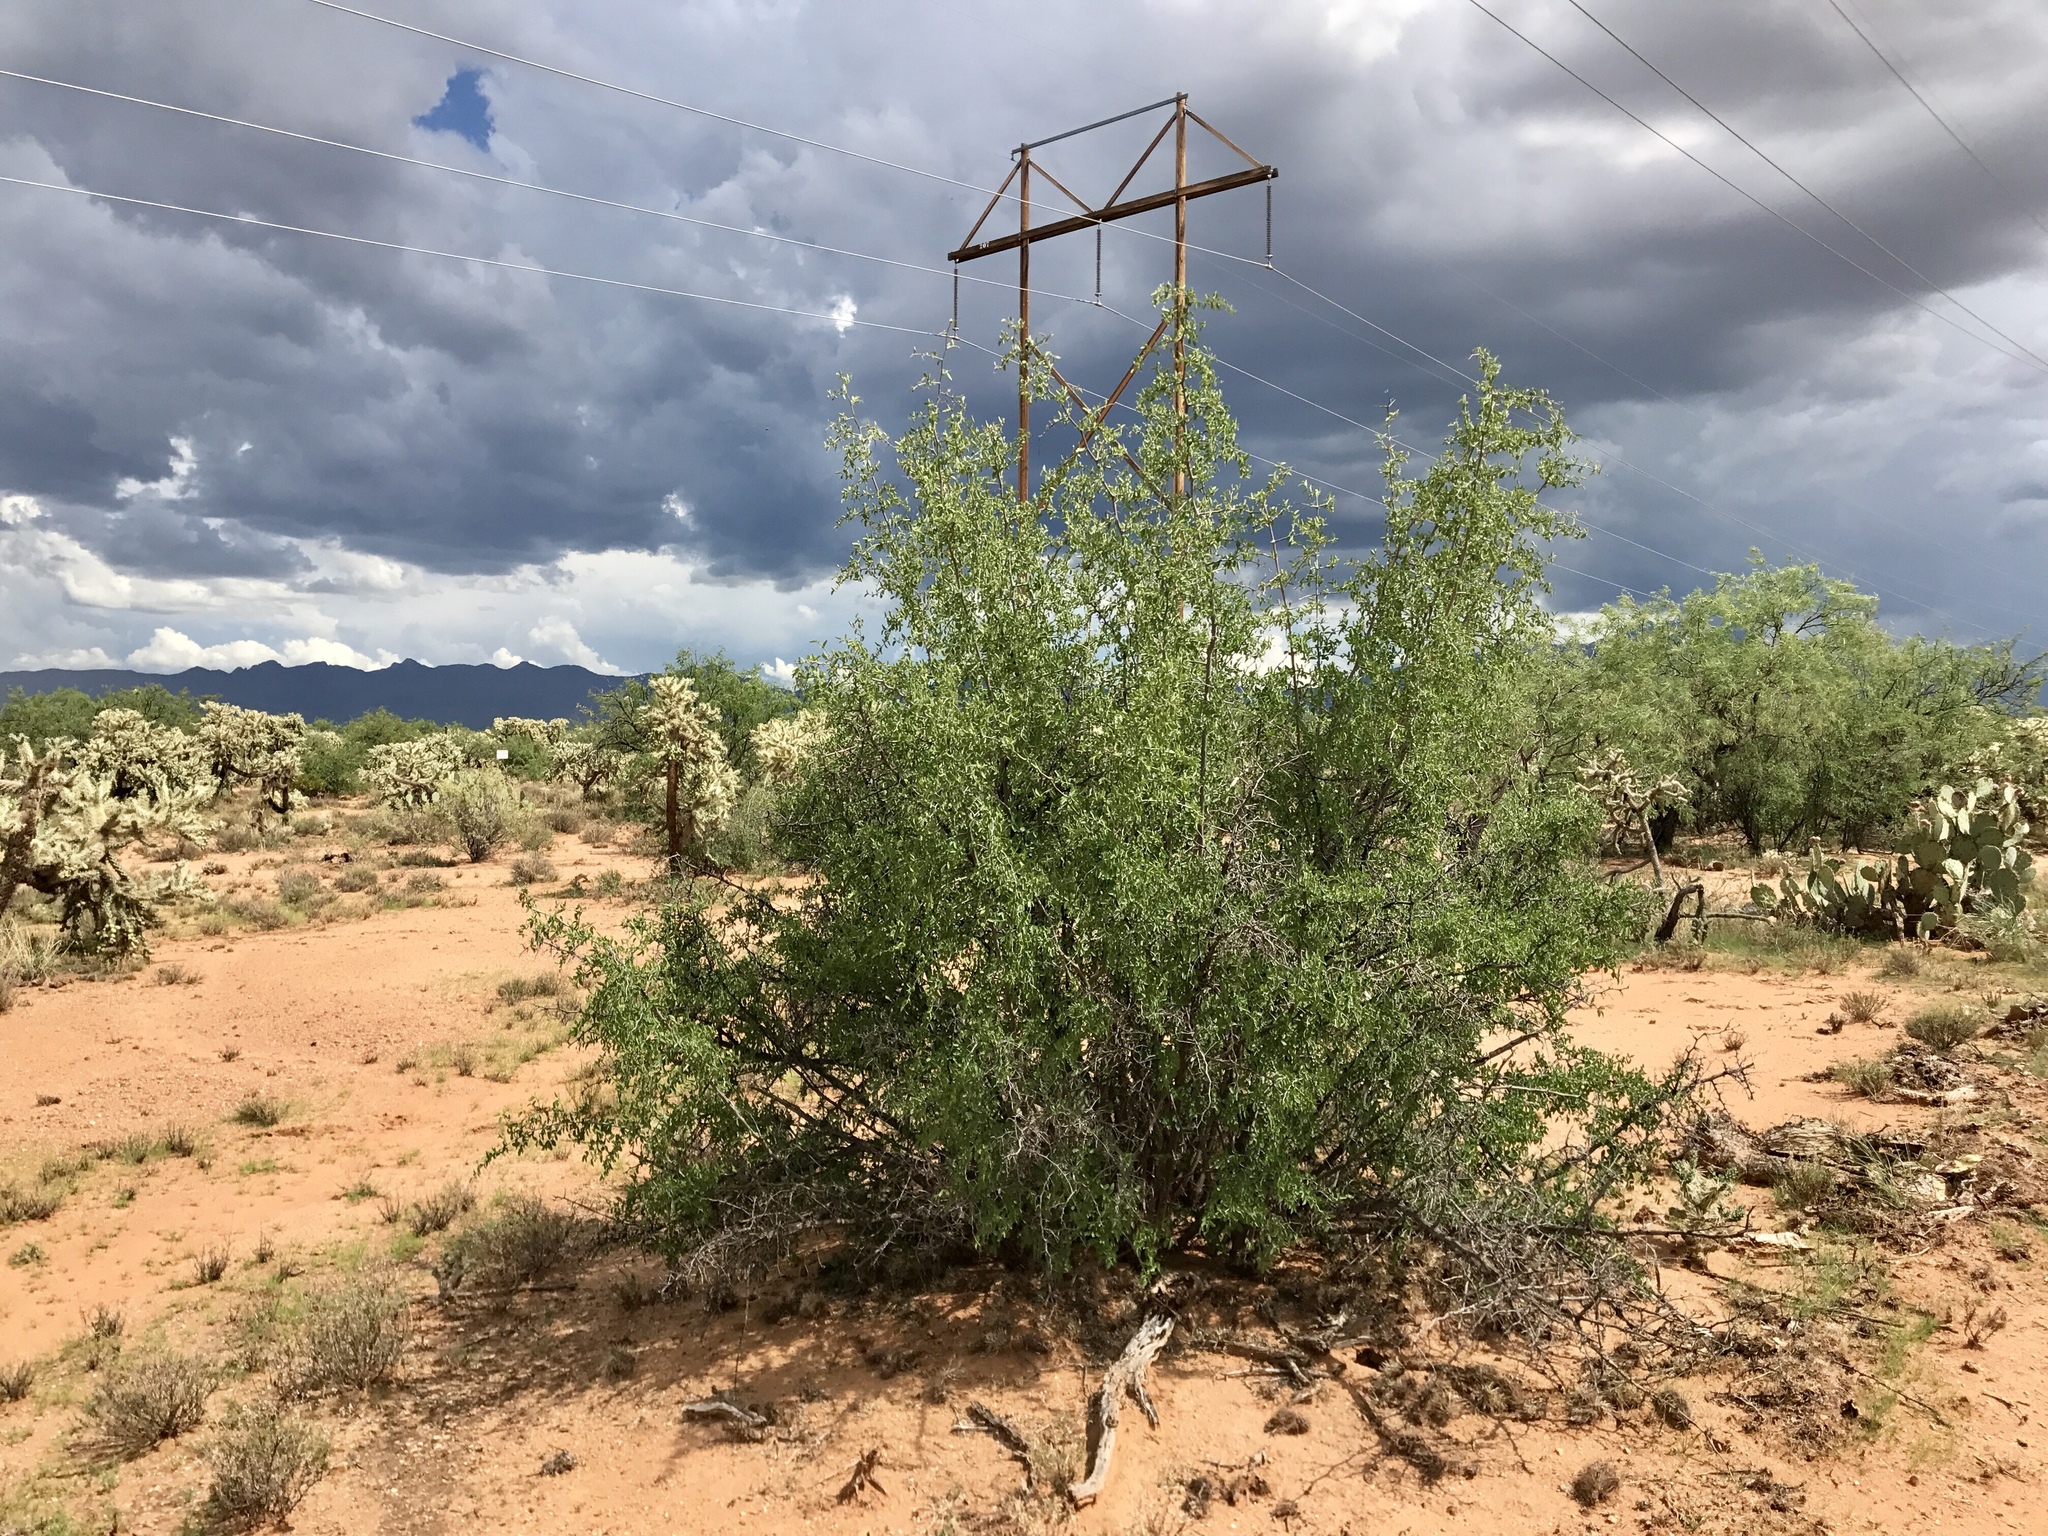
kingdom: Plantae
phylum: Tracheophyta
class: Magnoliopsida
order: Rosales
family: Cannabaceae
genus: Celtis
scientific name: Celtis pallida
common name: Desert hackberry
